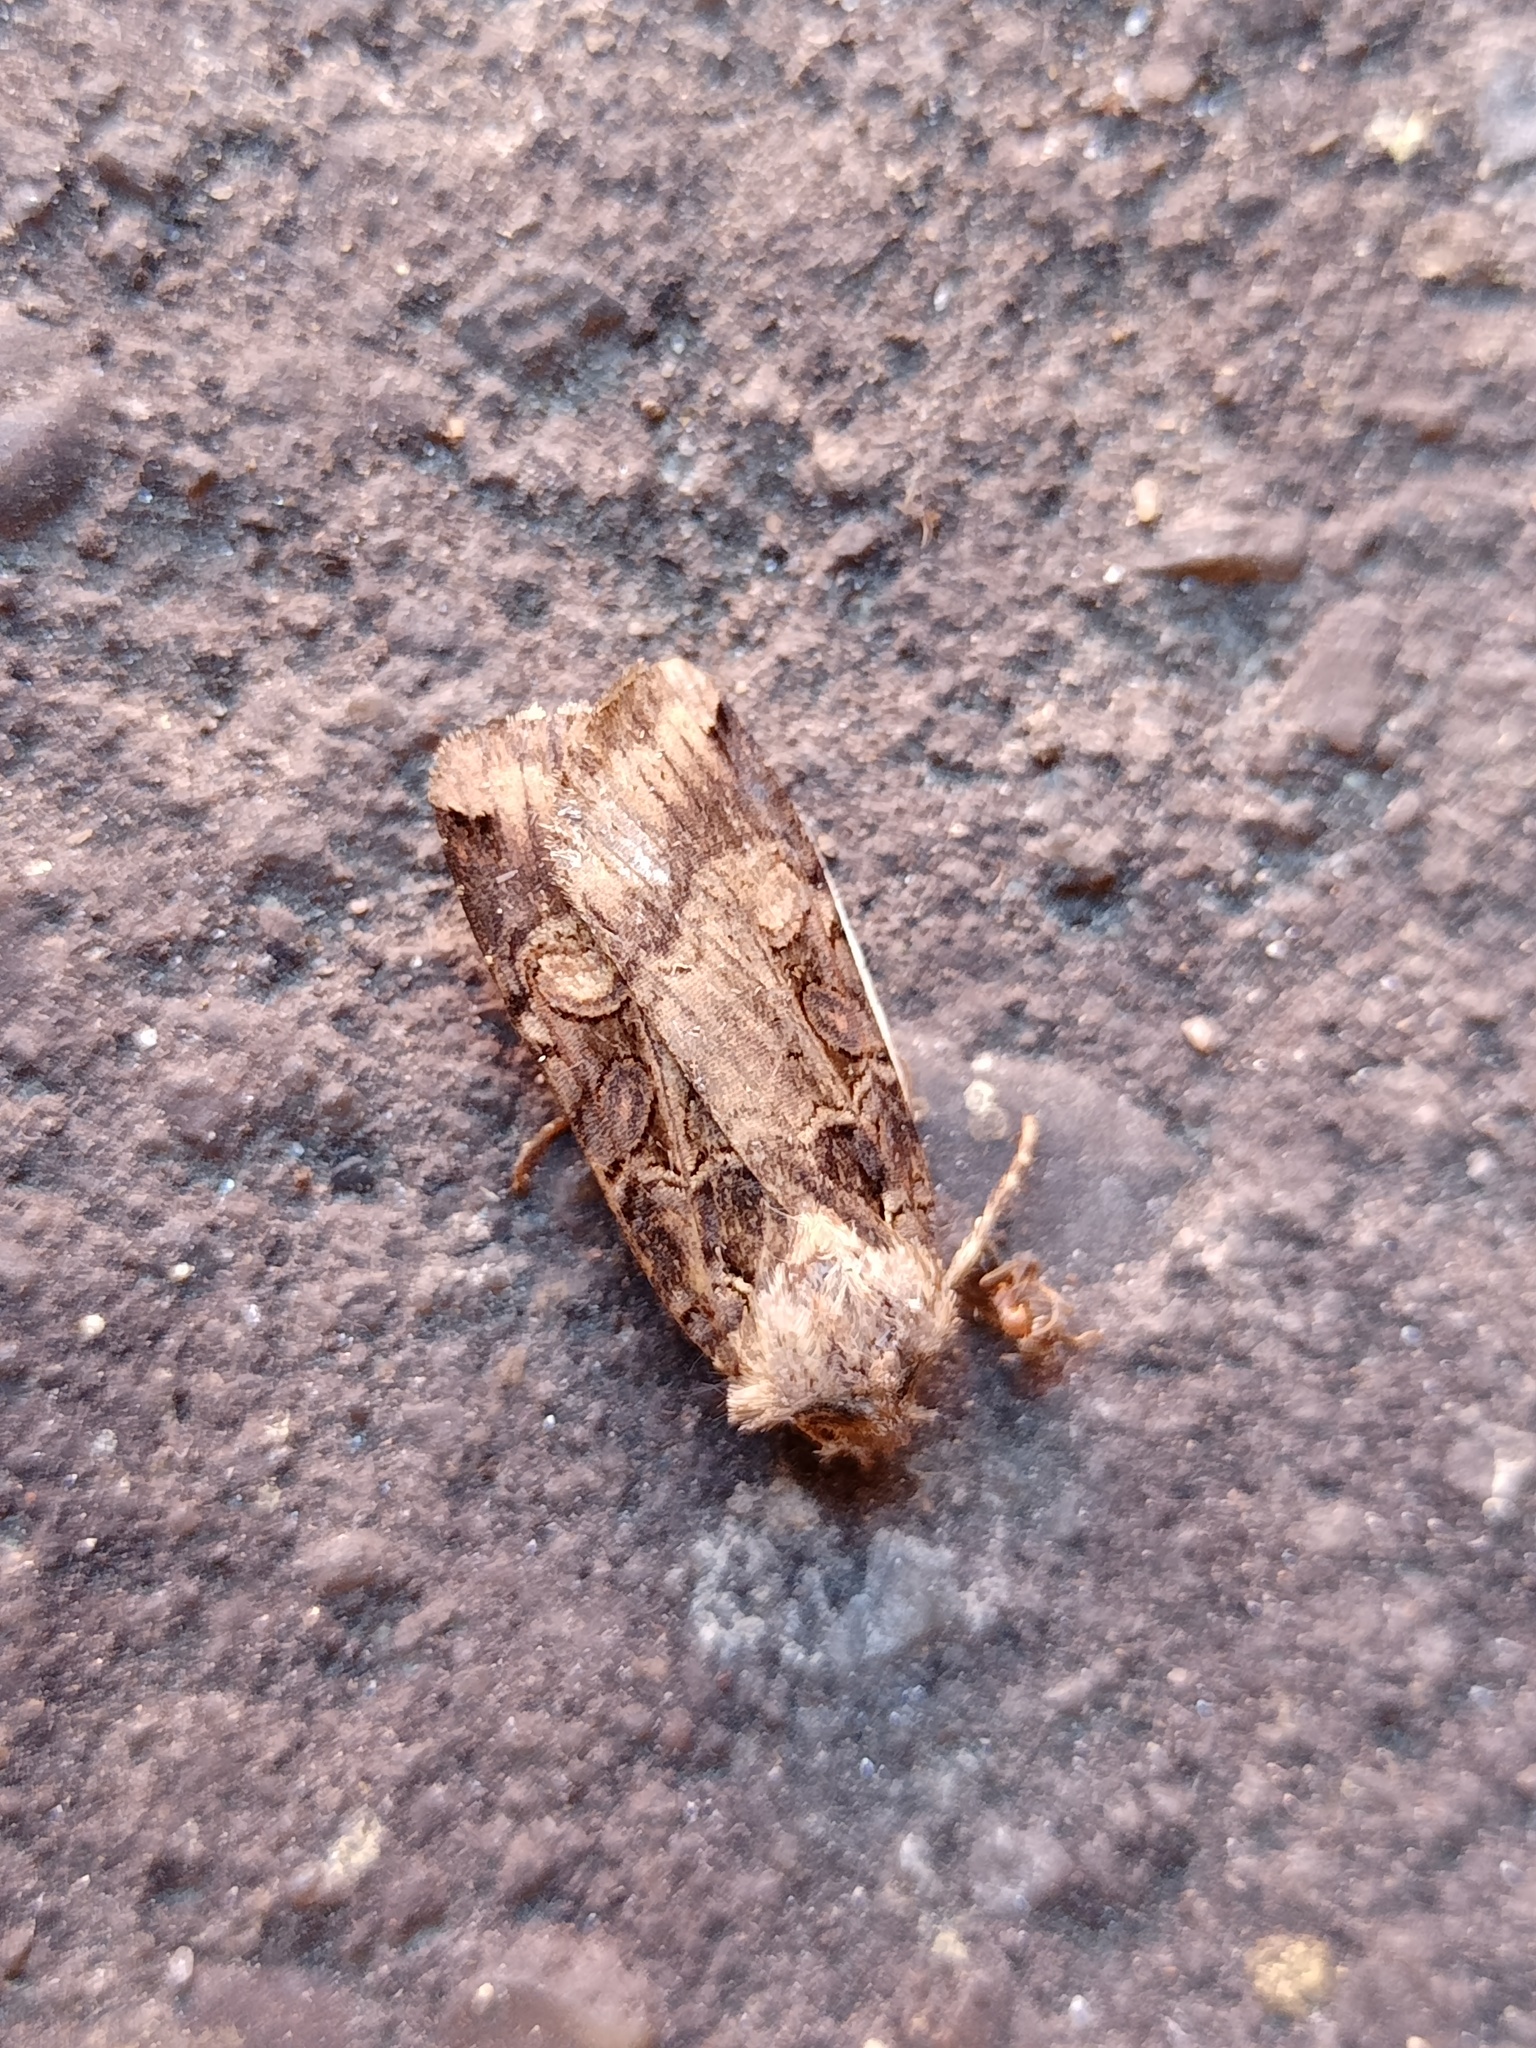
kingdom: Animalia
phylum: Arthropoda
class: Insecta
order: Lepidoptera
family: Noctuidae
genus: Opigena
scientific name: Opigena polygona
